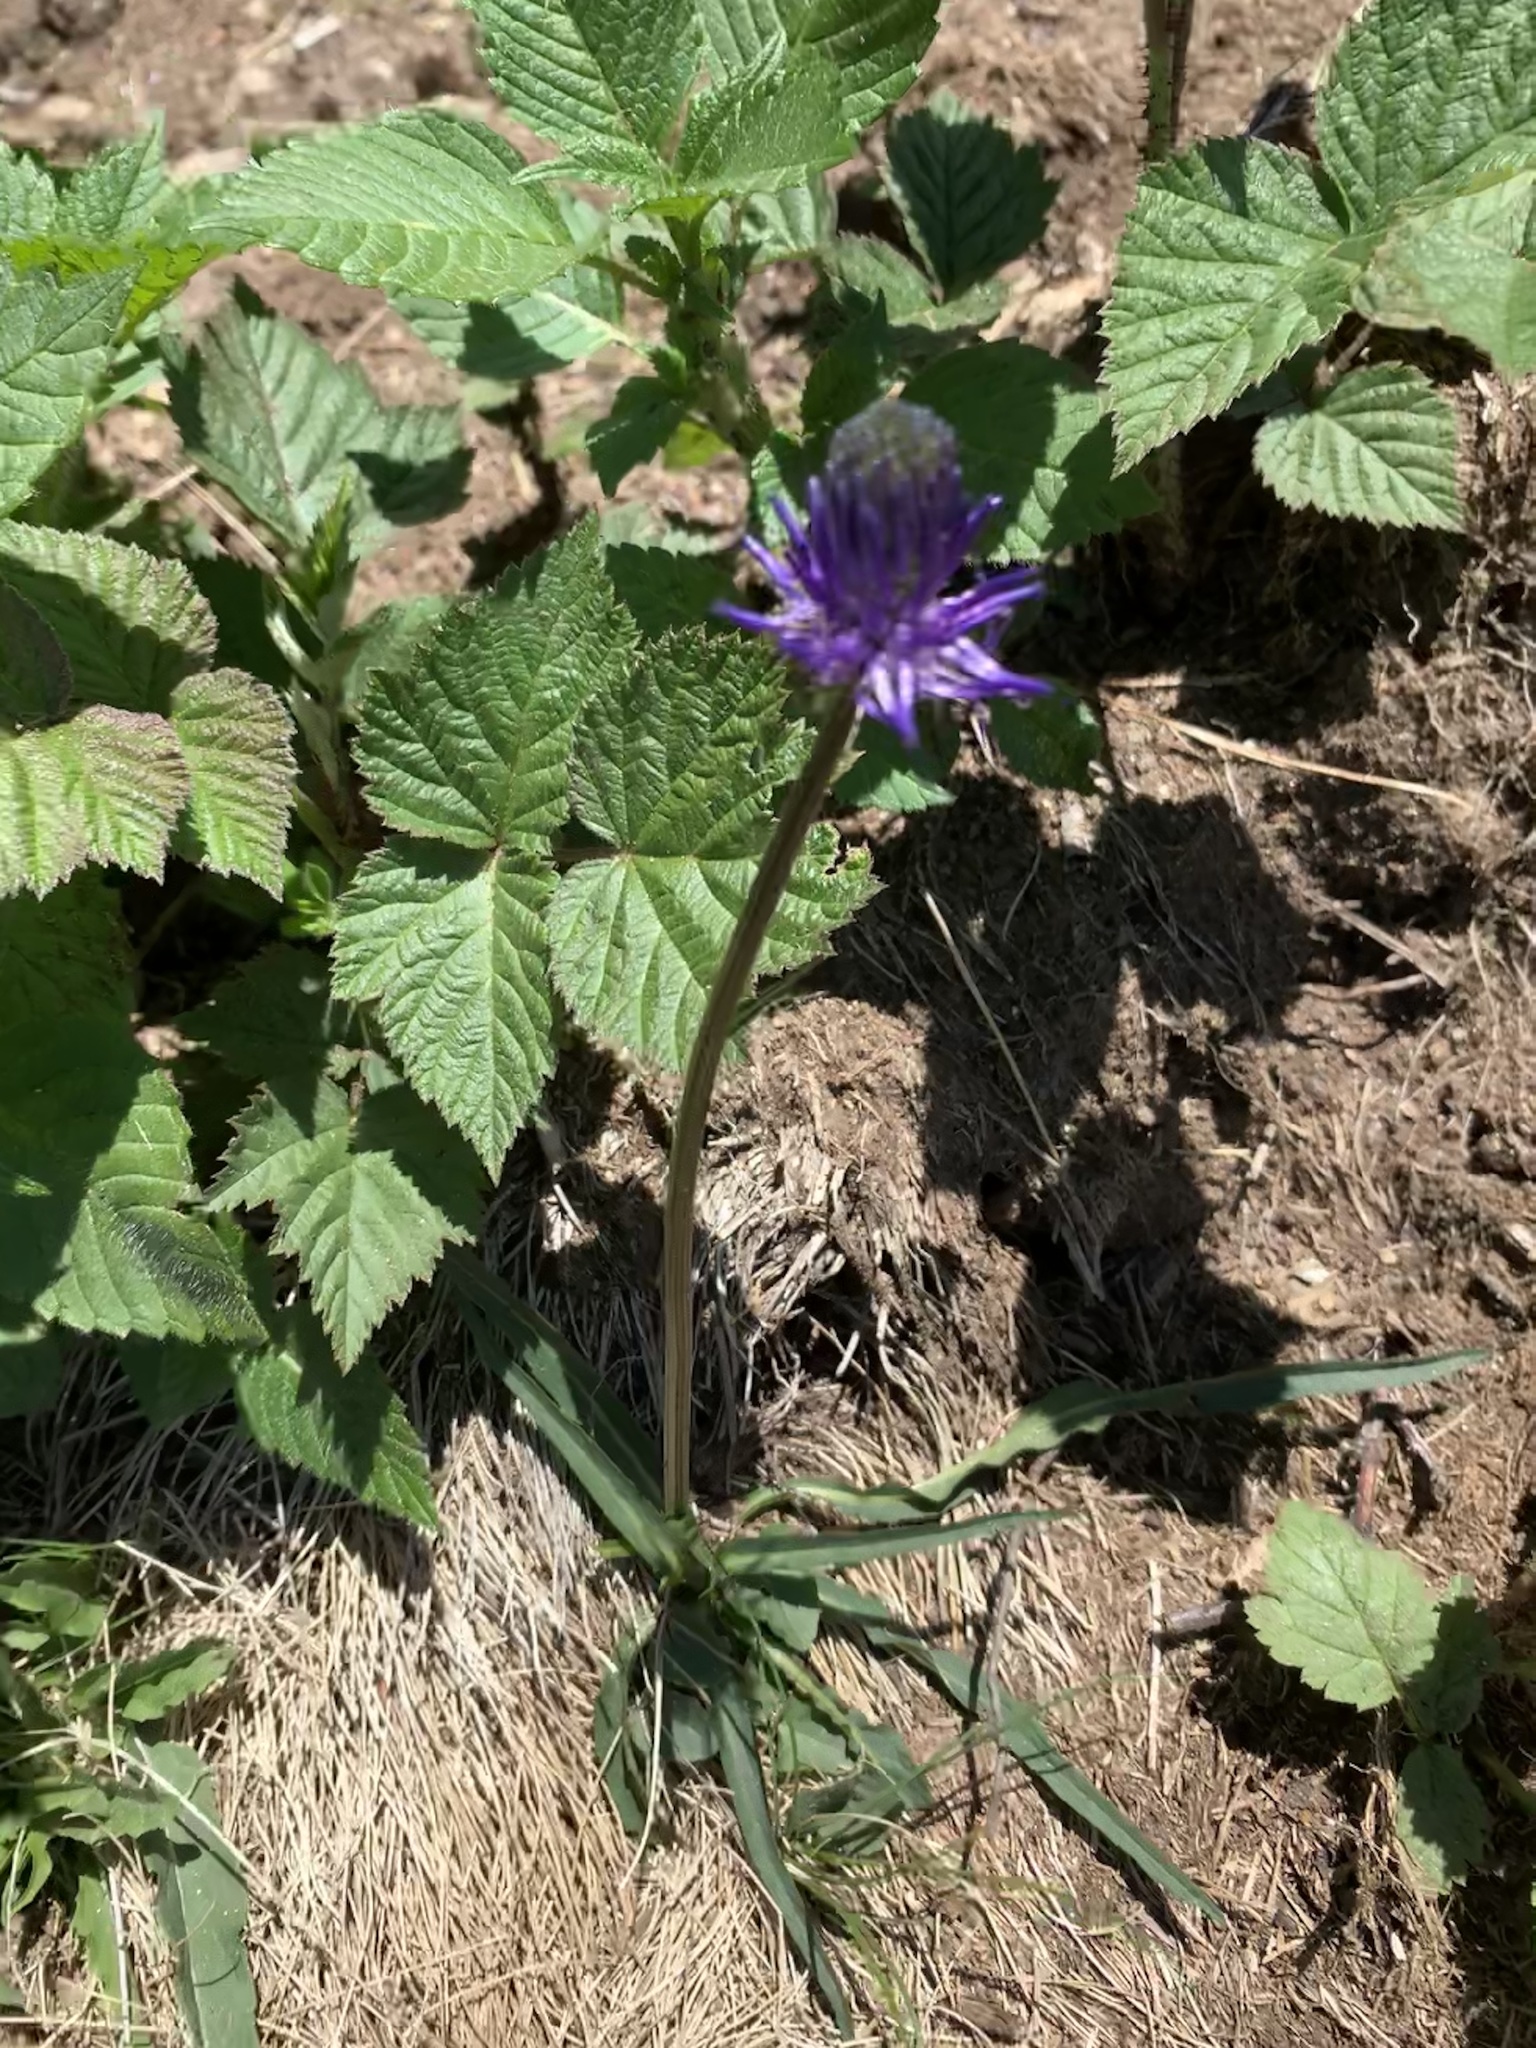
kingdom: Plantae
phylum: Tracheophyta
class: Magnoliopsida
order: Asterales
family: Campanulaceae
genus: Phyteuma
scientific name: Phyteuma betonicifolium
